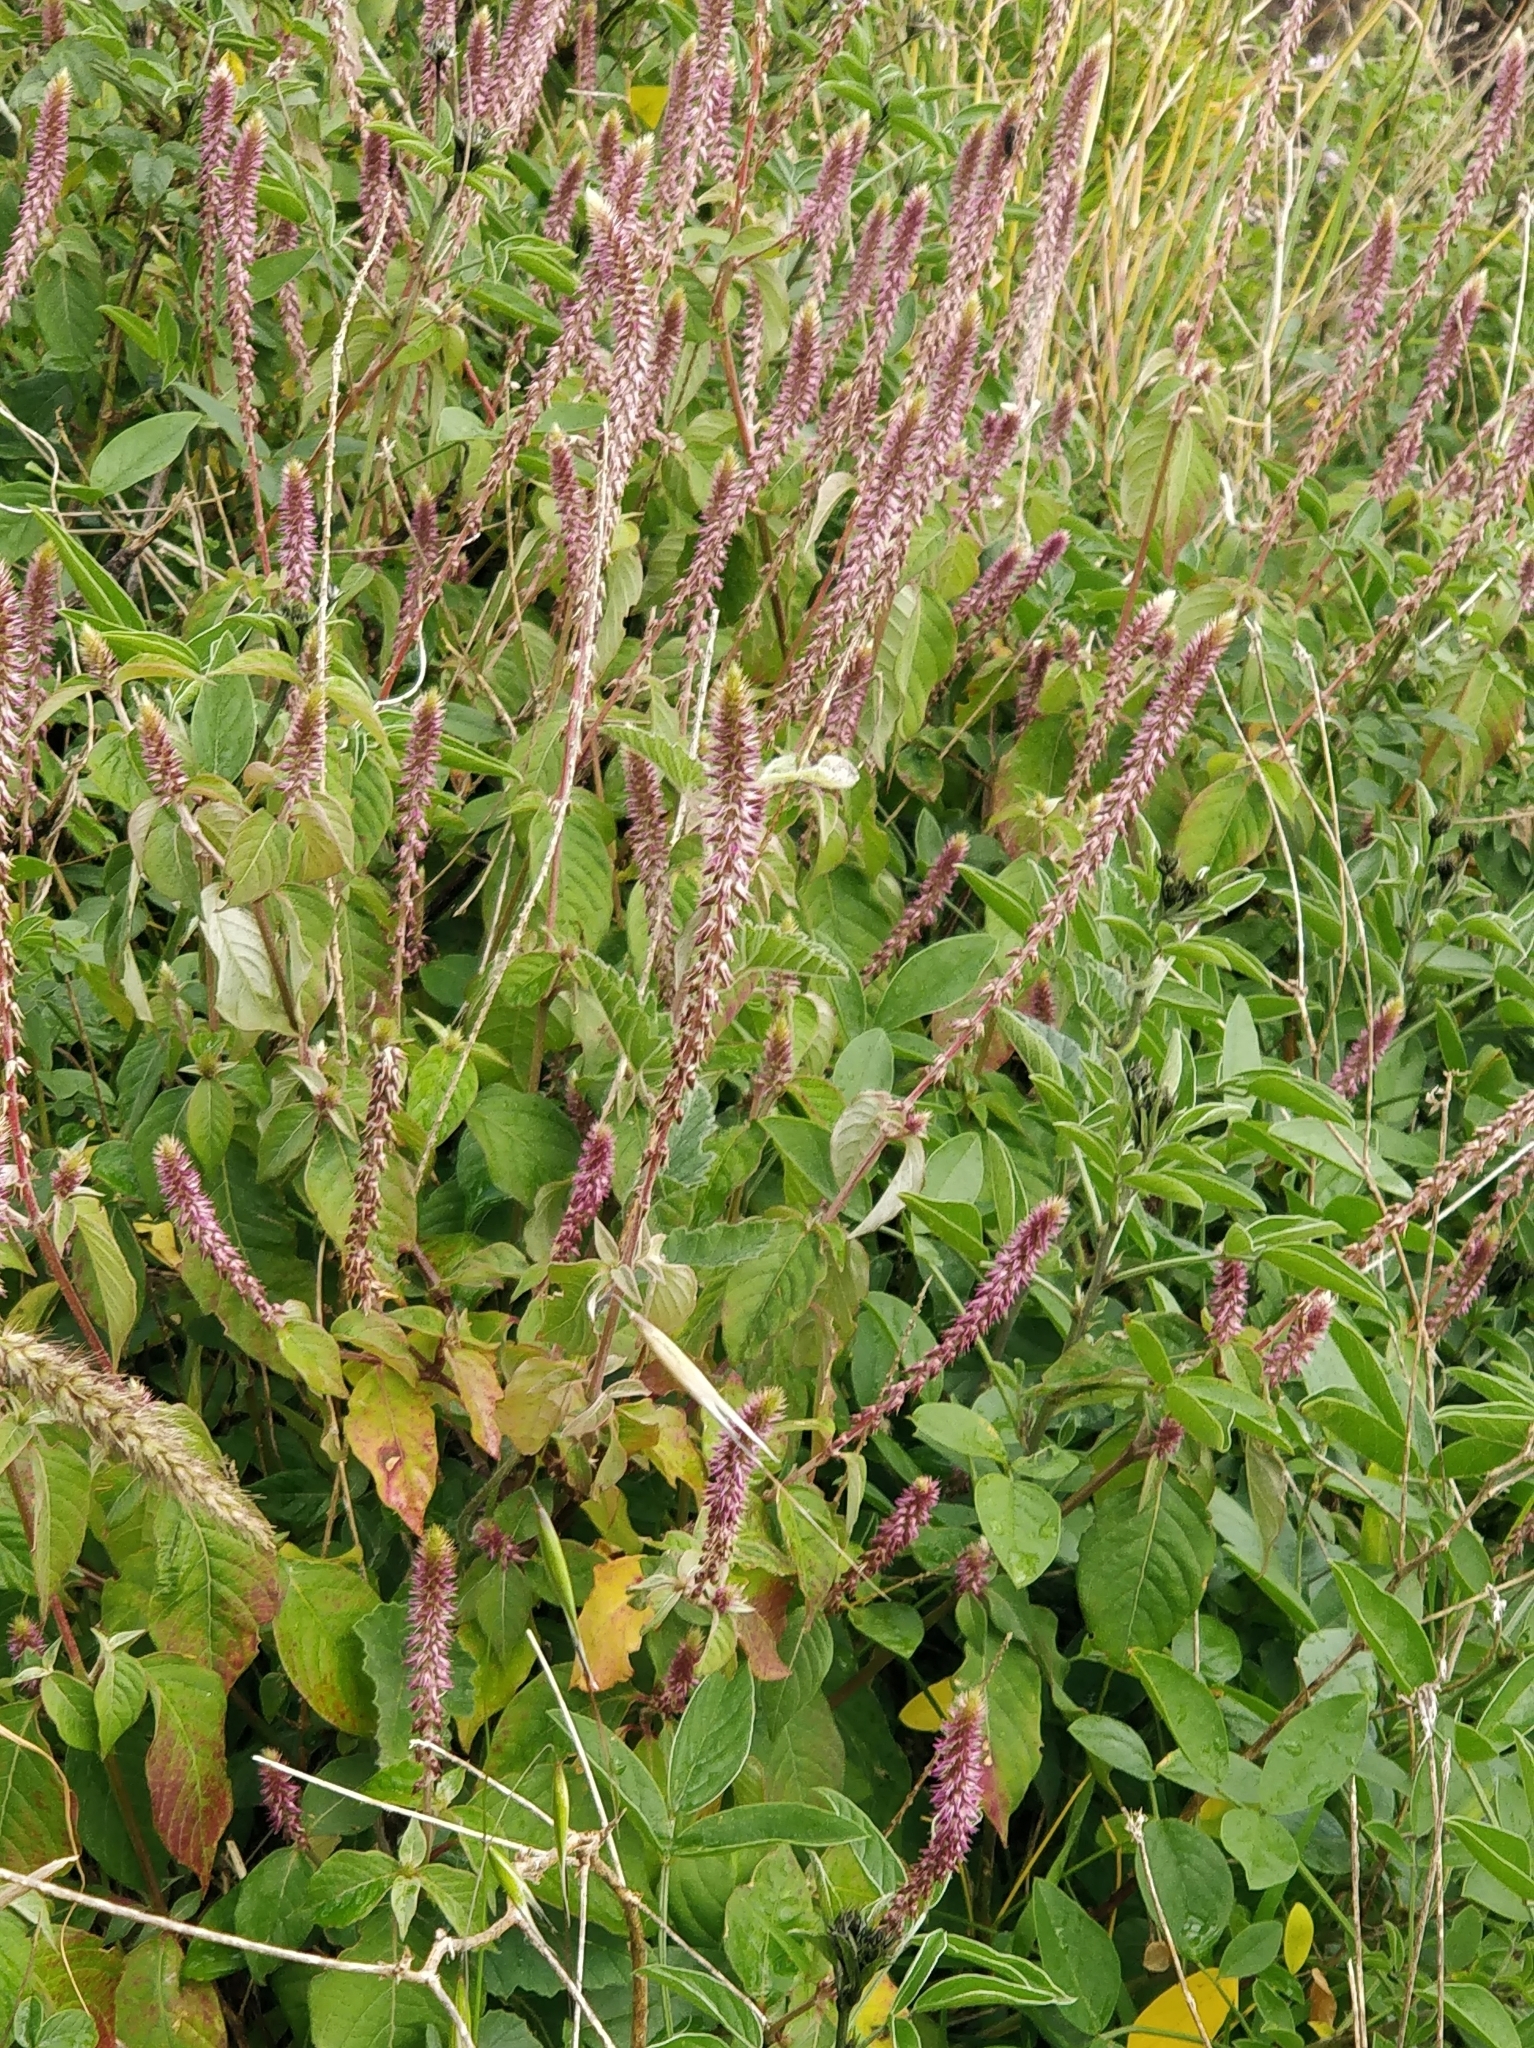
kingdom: Plantae
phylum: Tracheophyta
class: Magnoliopsida
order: Caryophyllales
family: Amaranthaceae
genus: Achyranthes
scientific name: Achyranthes aspera
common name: Devil's horsewhip
